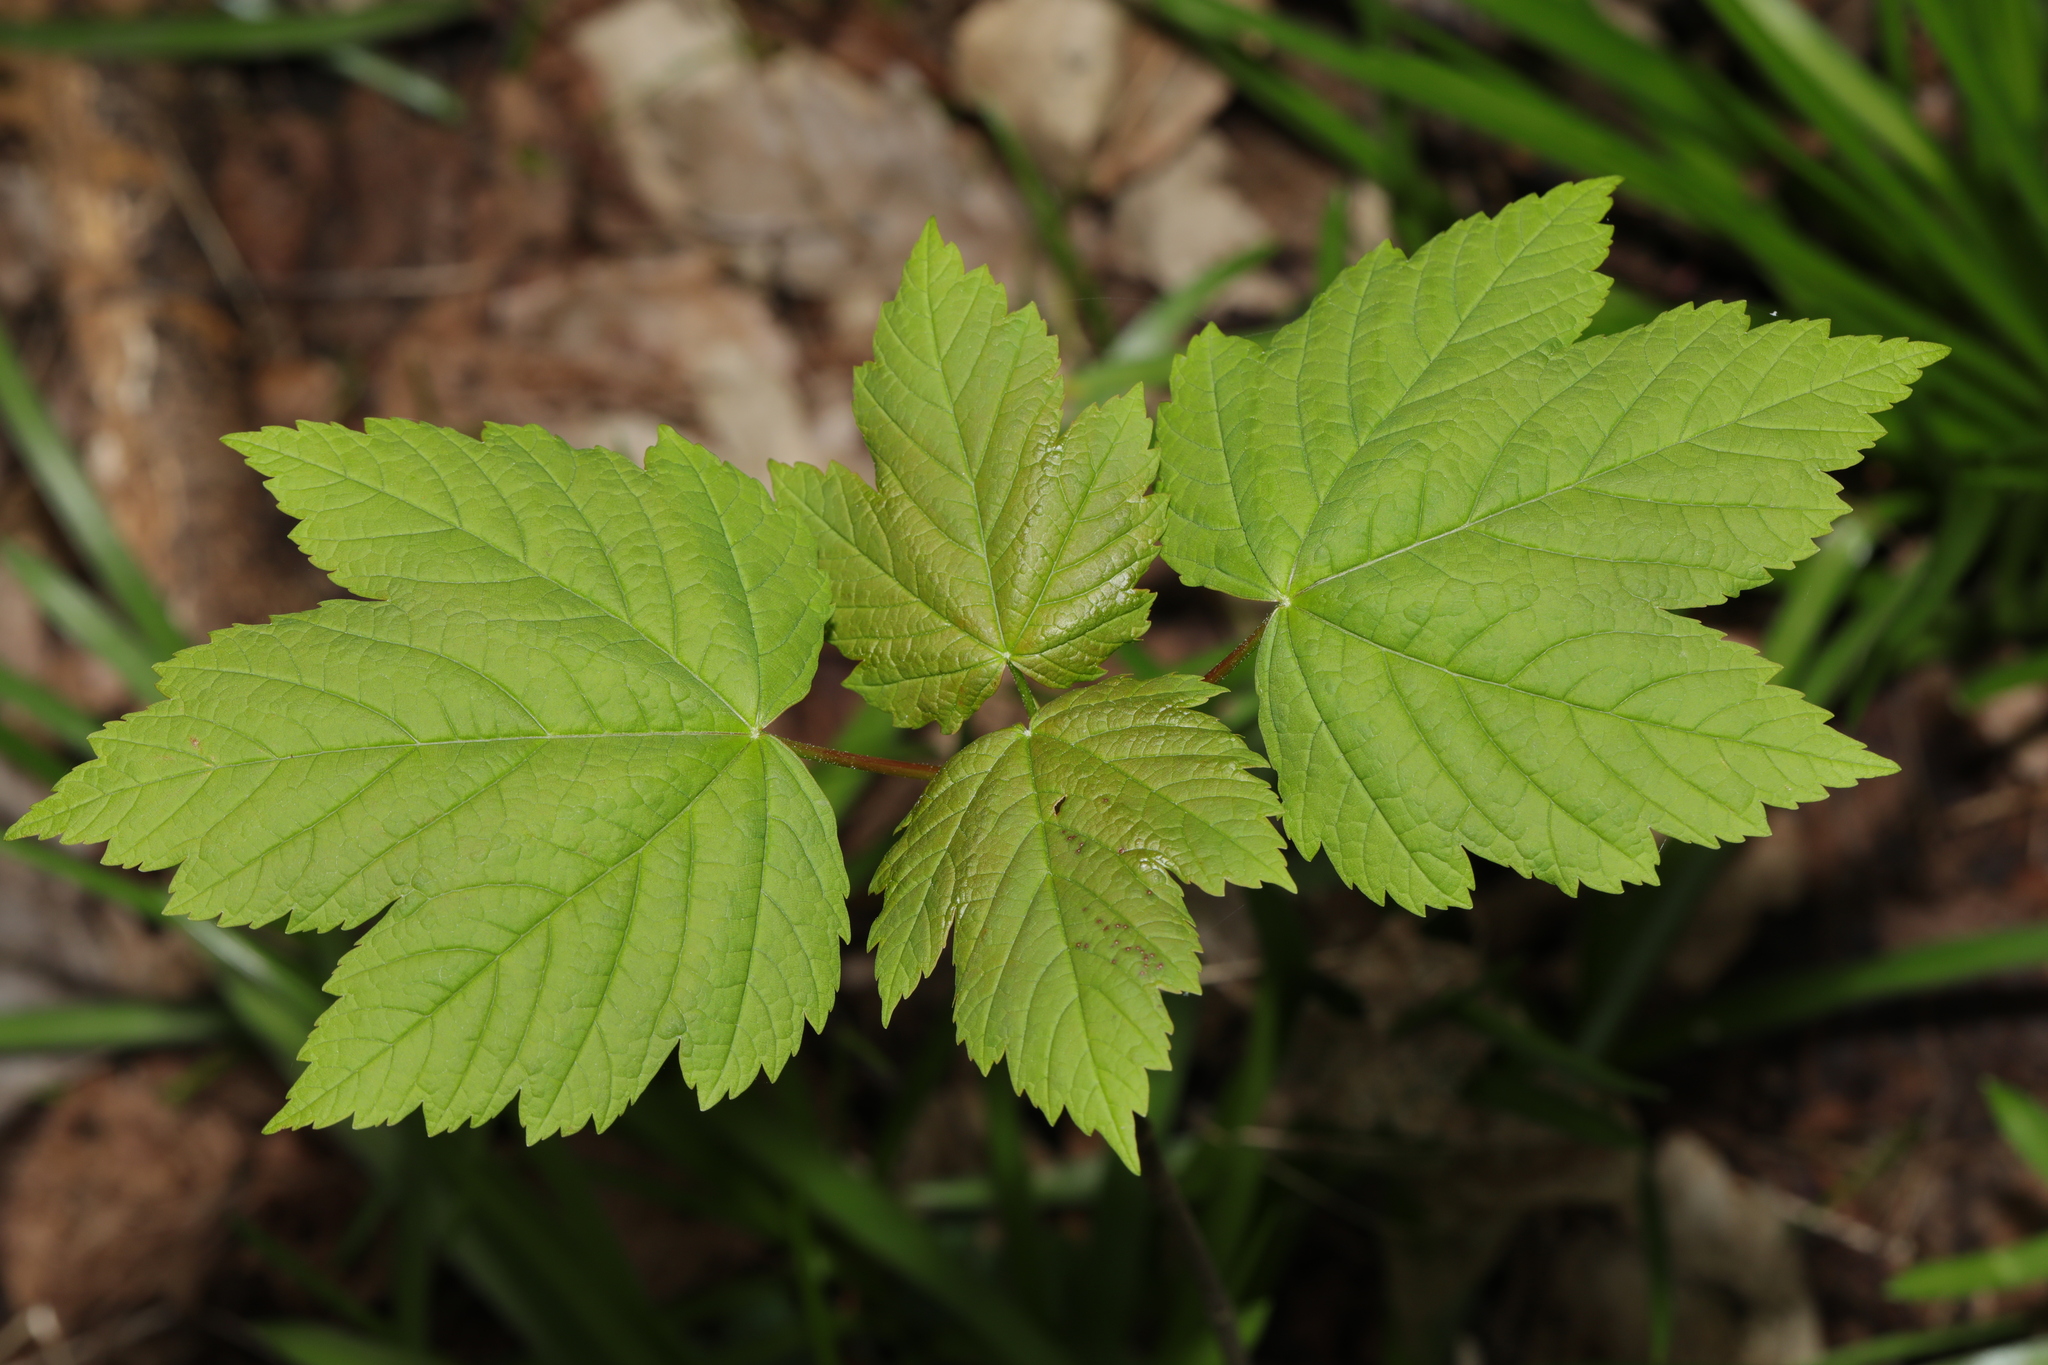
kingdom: Plantae
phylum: Tracheophyta
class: Magnoliopsida
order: Sapindales
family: Sapindaceae
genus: Acer
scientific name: Acer pseudoplatanus
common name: Sycamore
